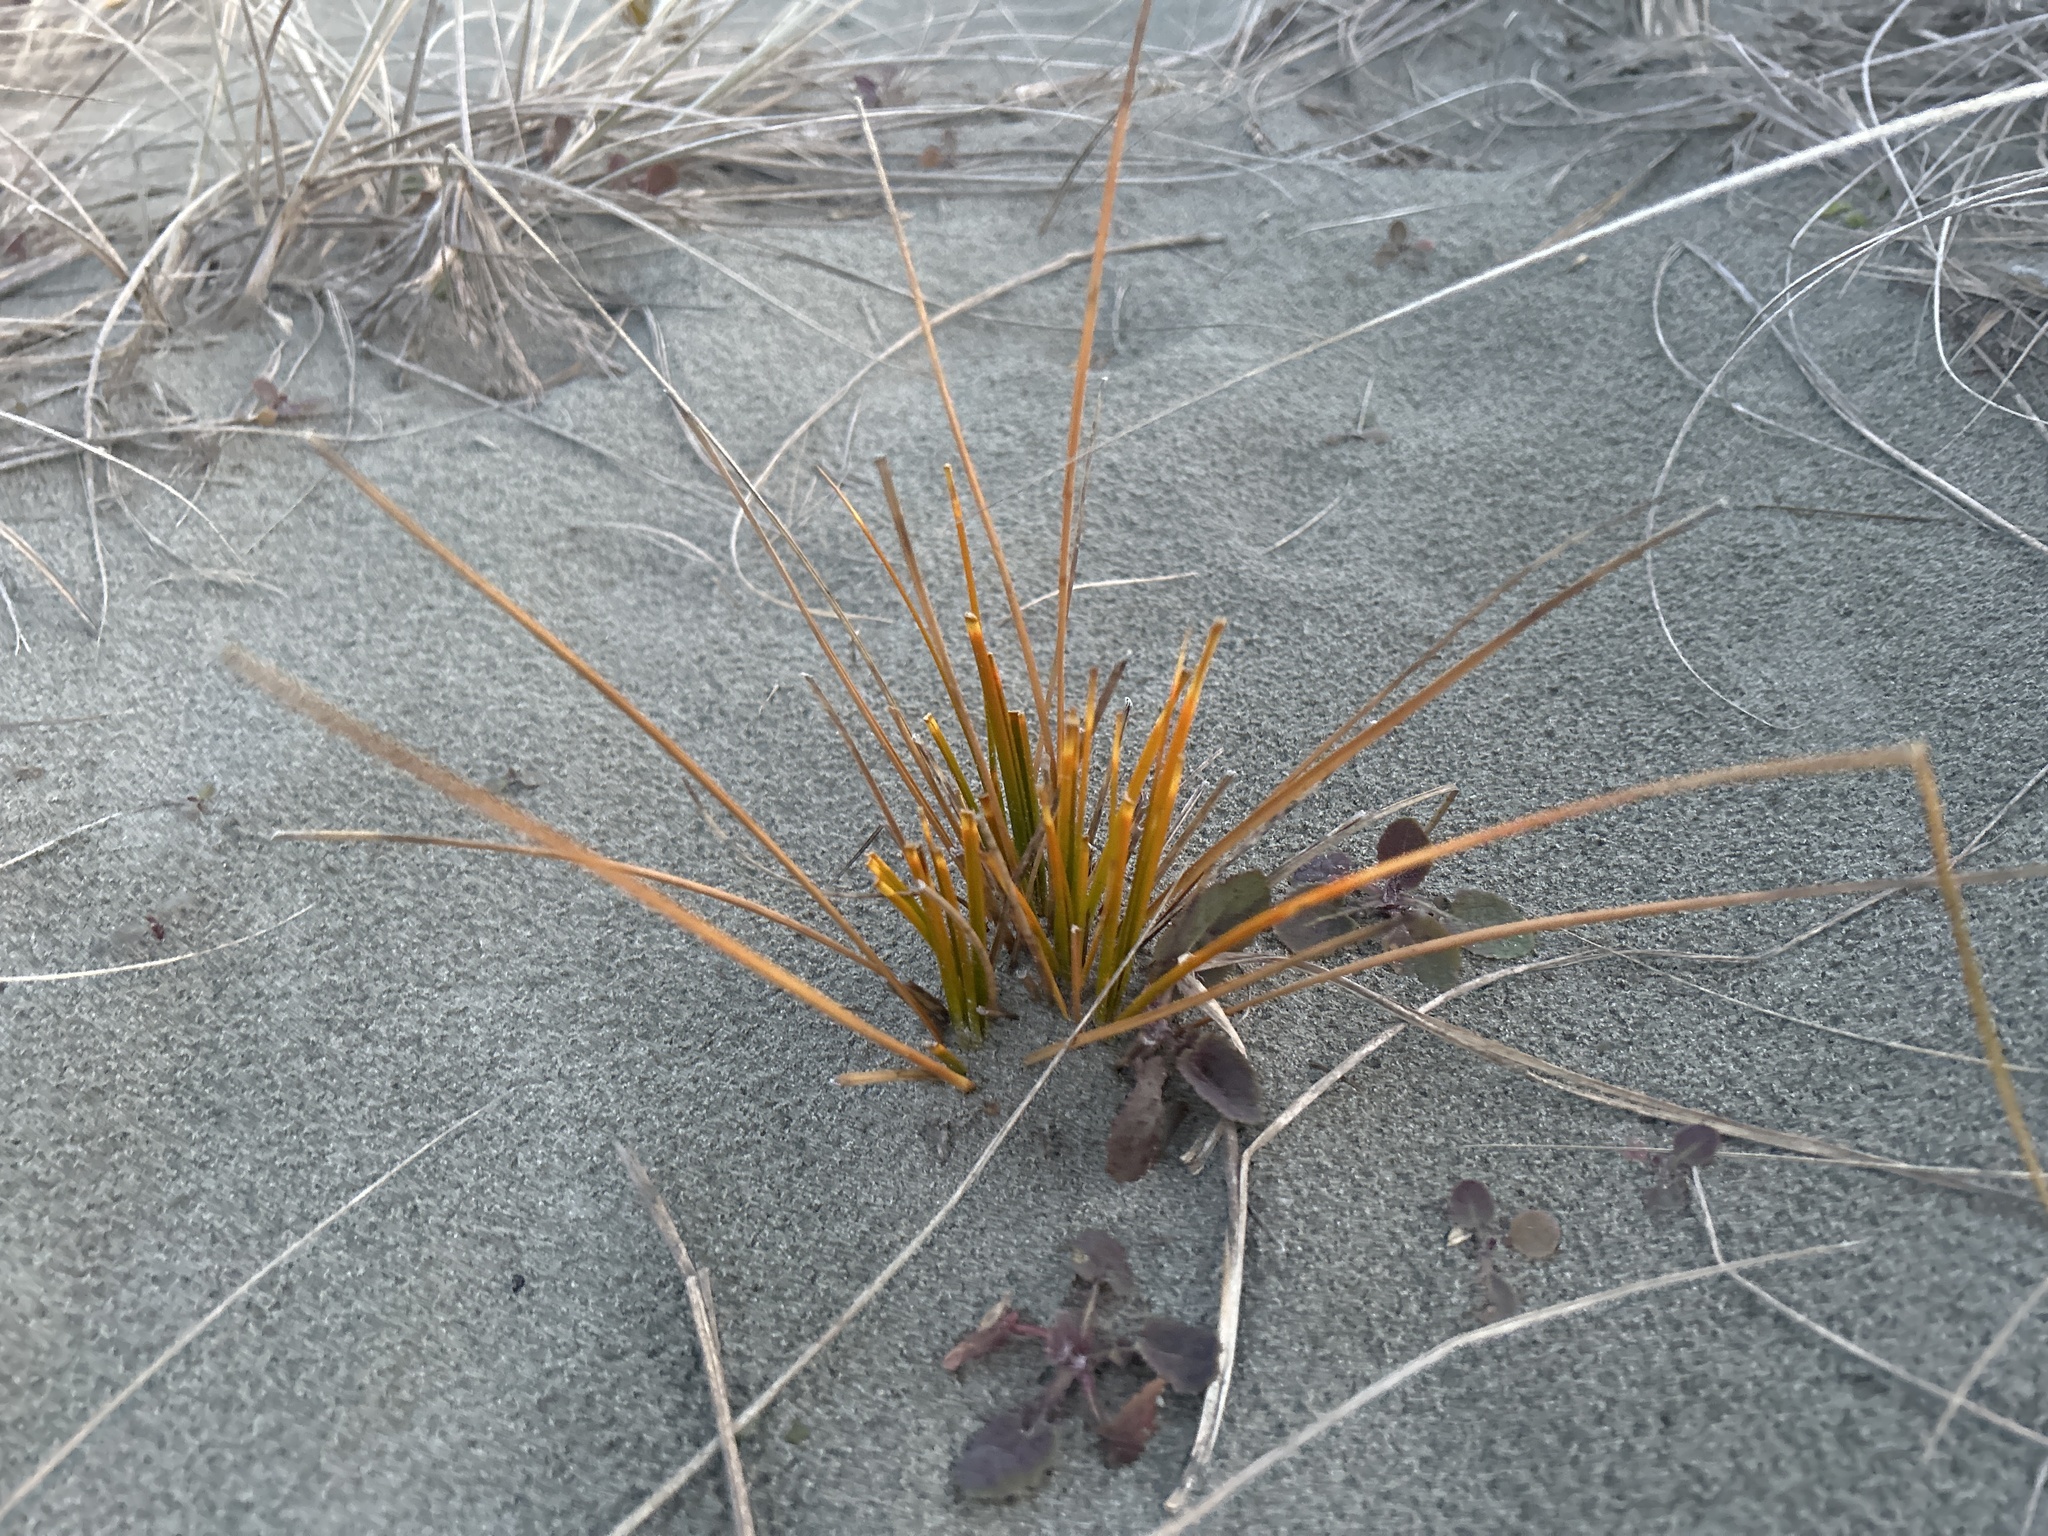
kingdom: Plantae
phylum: Tracheophyta
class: Liliopsida
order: Poales
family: Cyperaceae
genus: Ficinia
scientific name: Ficinia spiralis
